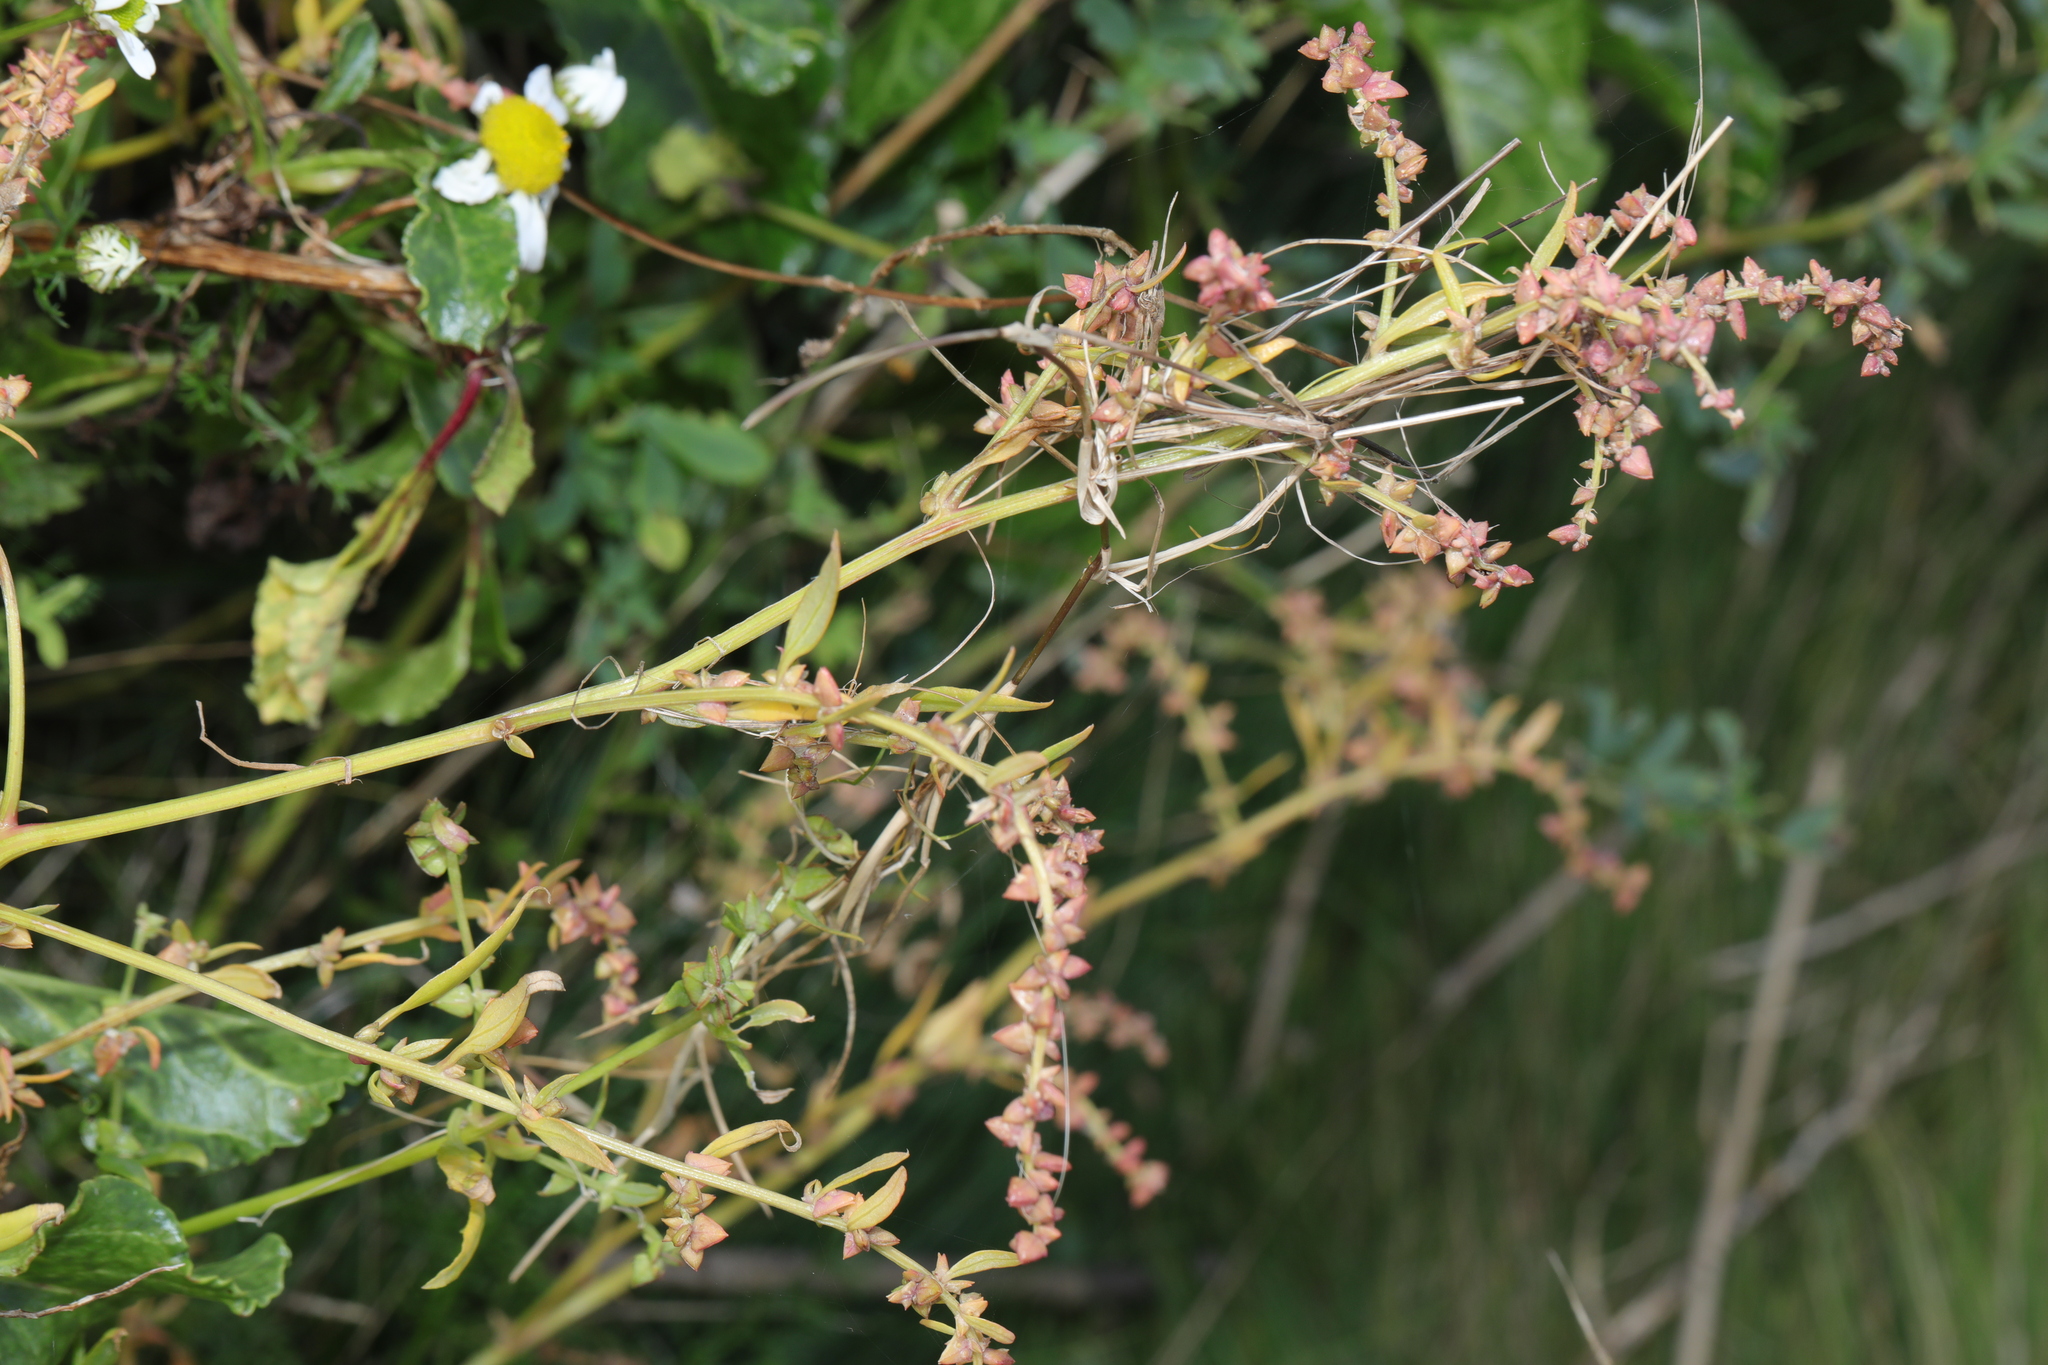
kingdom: Plantae
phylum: Tracheophyta
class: Magnoliopsida
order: Caryophyllales
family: Amaranthaceae
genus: Atriplex
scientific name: Atriplex prostrata
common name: Spear-leaved orache
